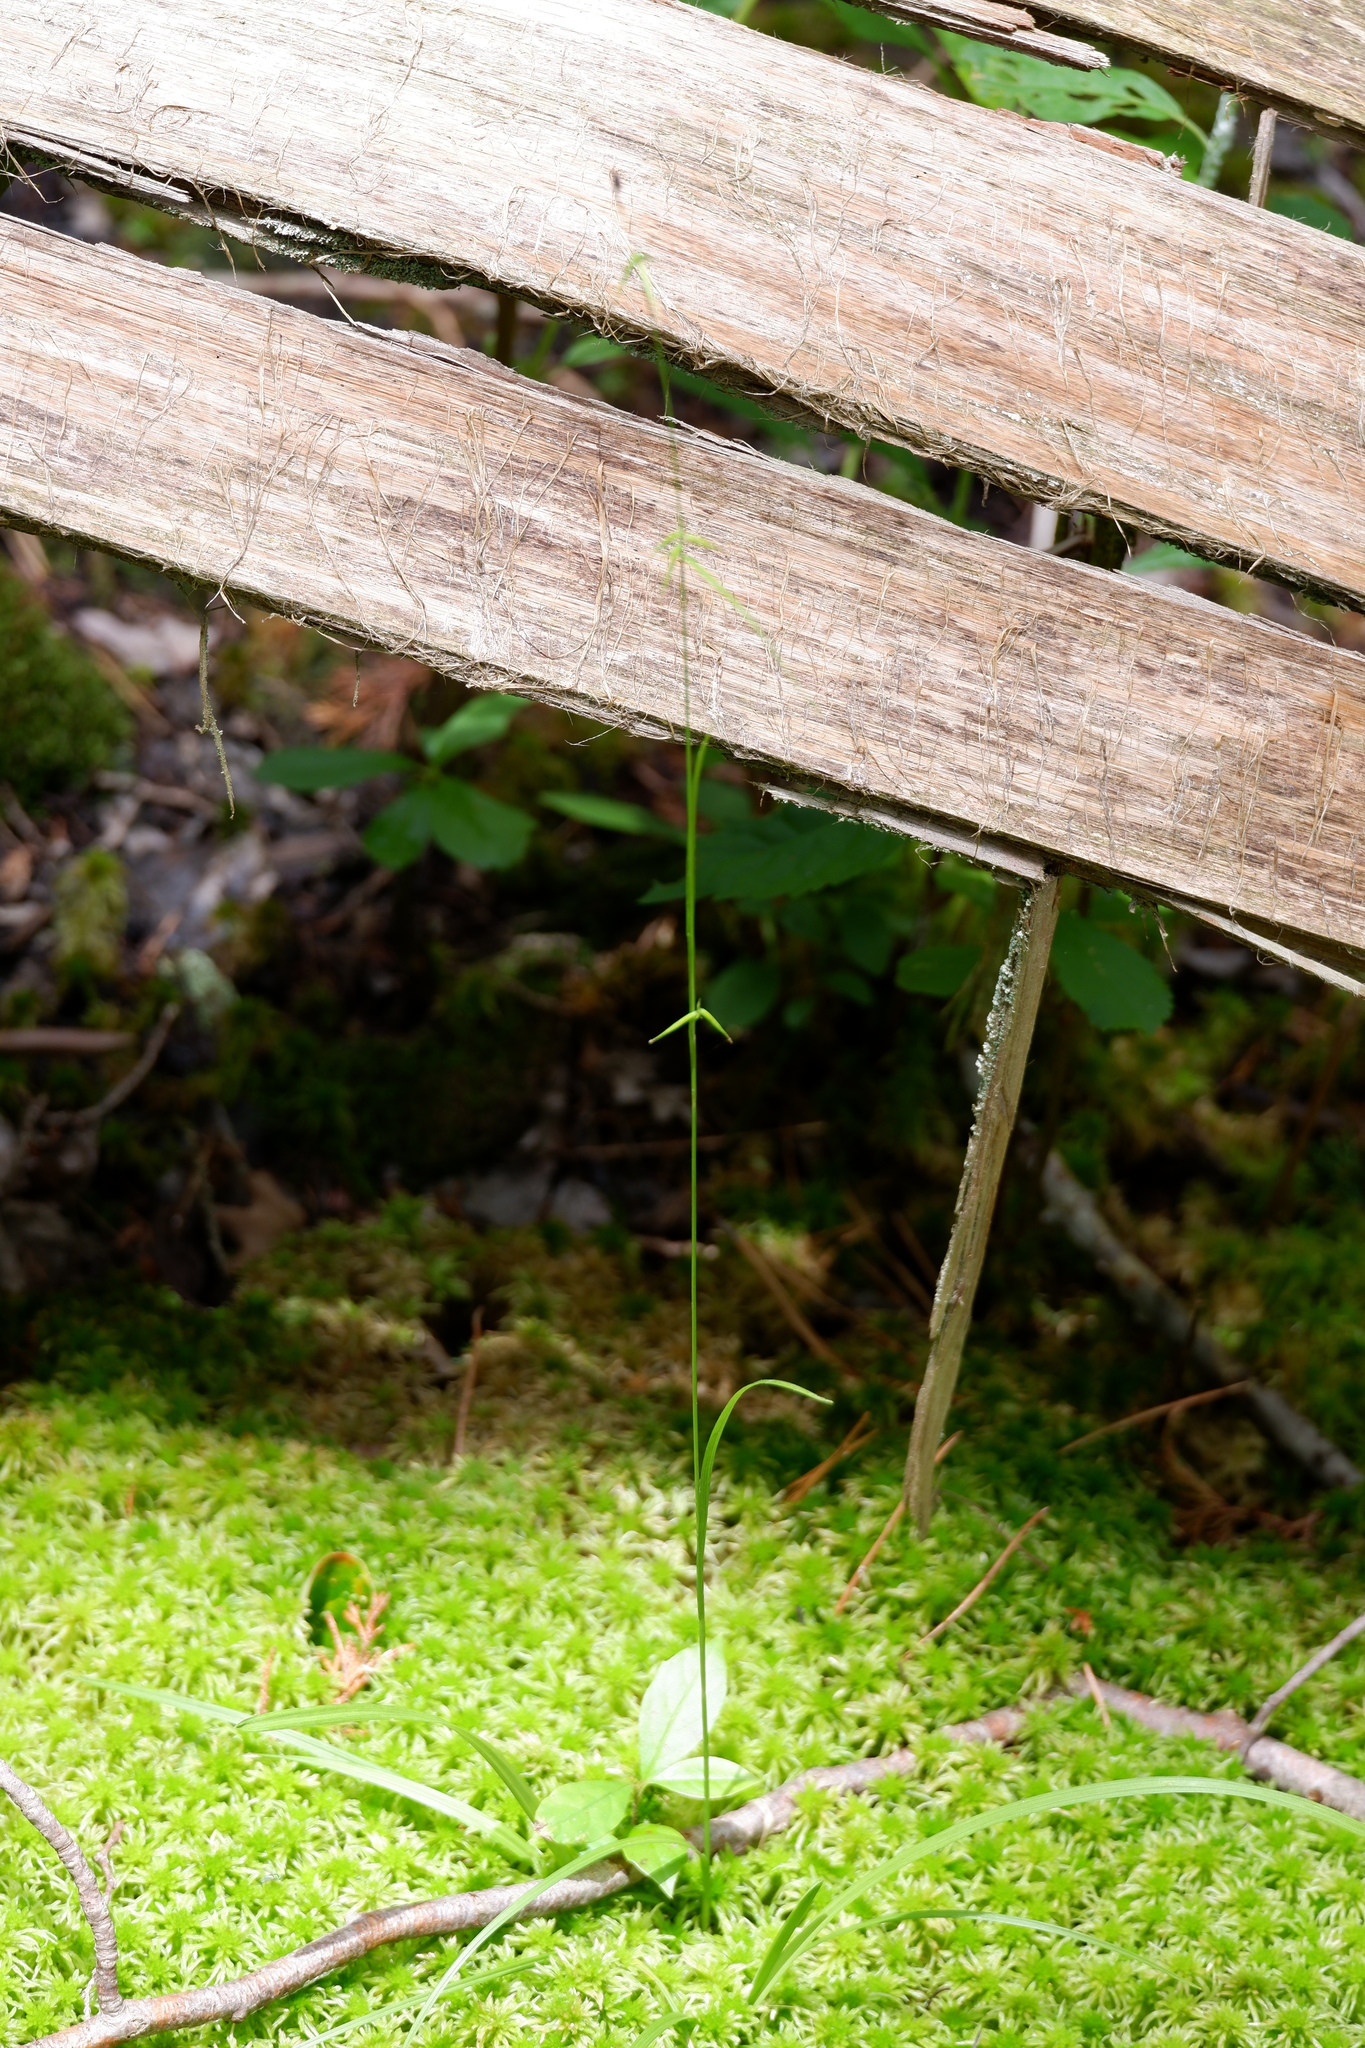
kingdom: Plantae
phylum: Tracheophyta
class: Liliopsida
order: Poales
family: Cyperaceae
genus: Carex
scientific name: Carex collinsii
